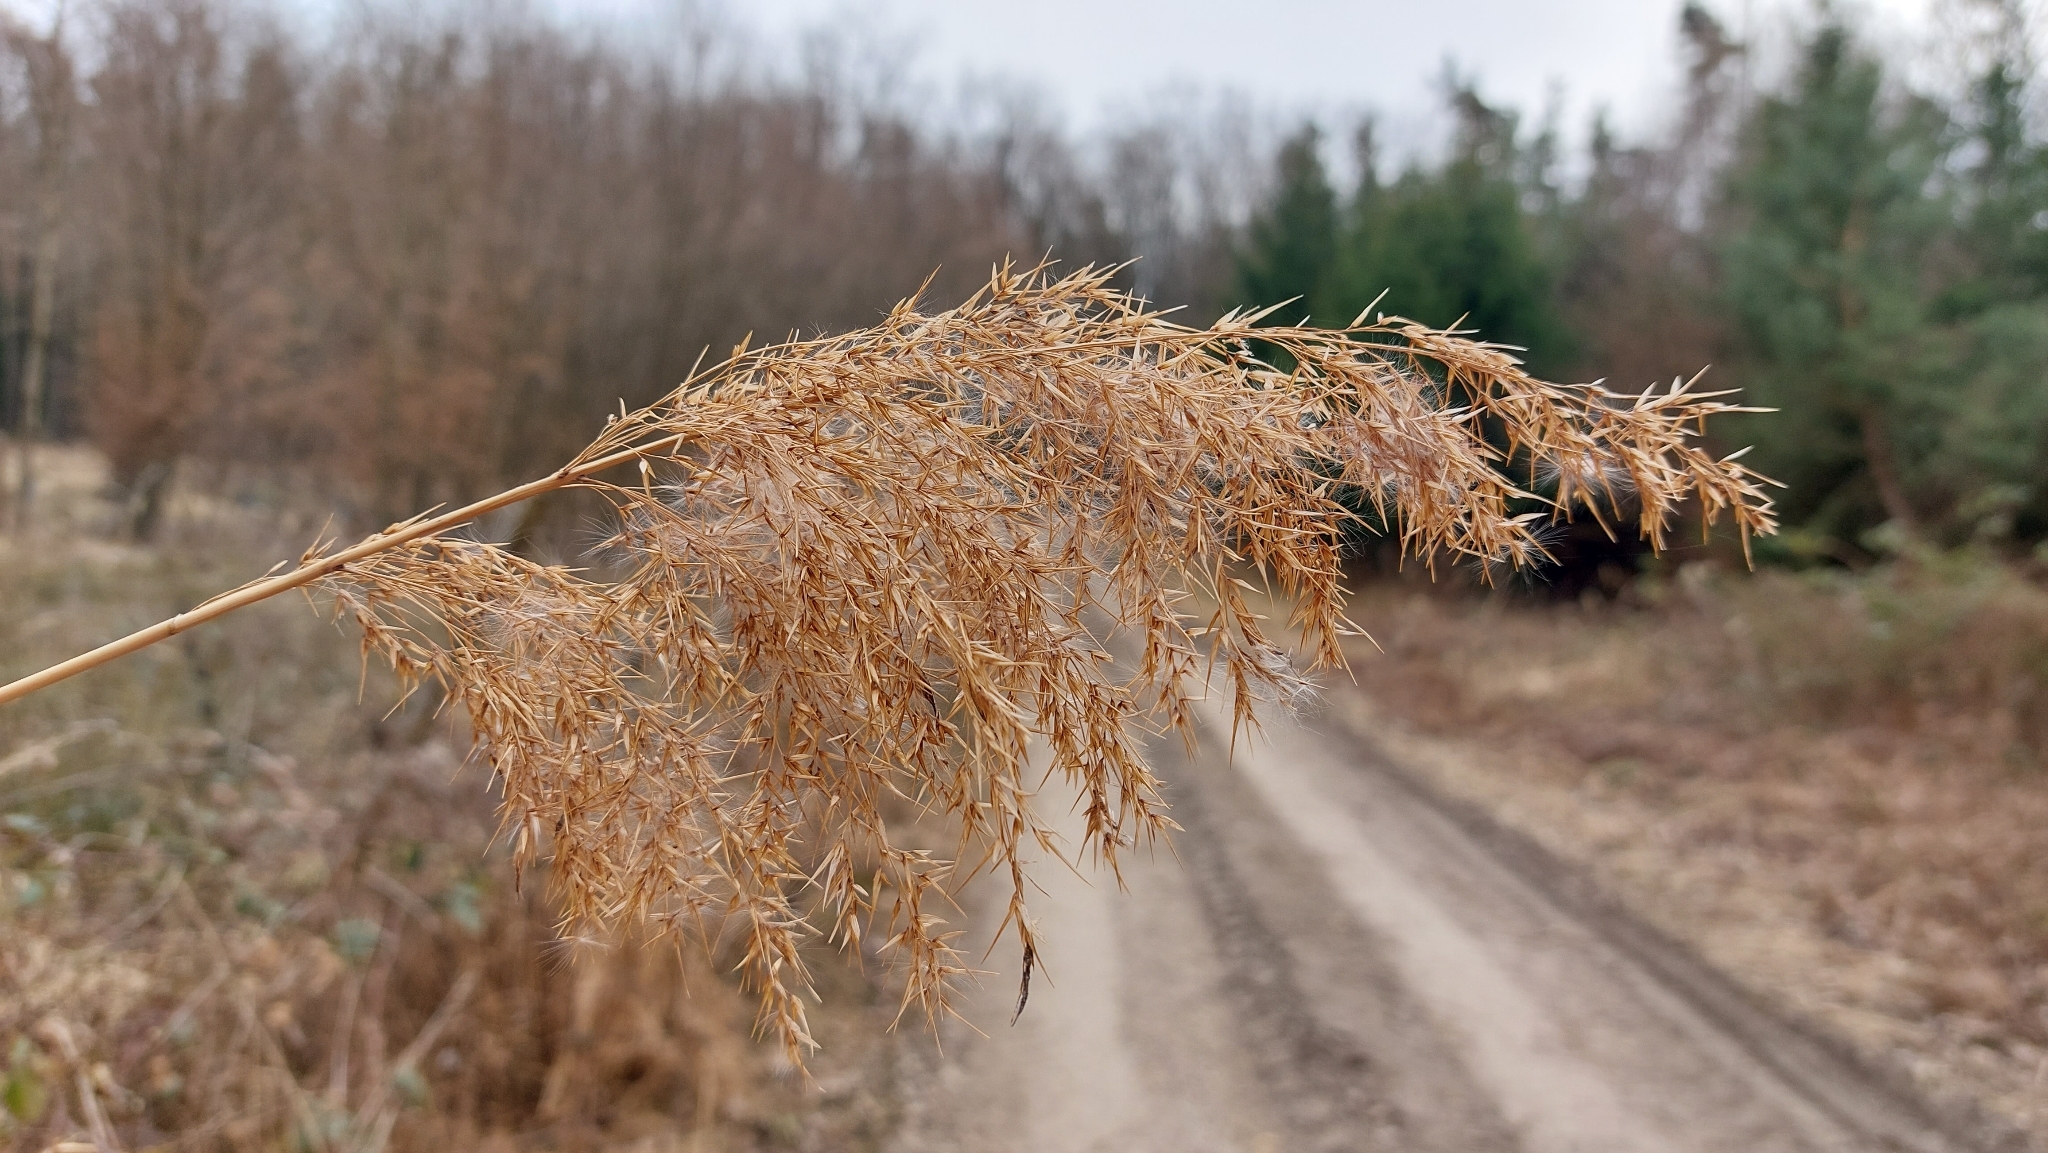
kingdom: Plantae
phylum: Tracheophyta
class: Liliopsida
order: Poales
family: Poaceae
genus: Phragmites
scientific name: Phragmites australis
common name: Common reed
